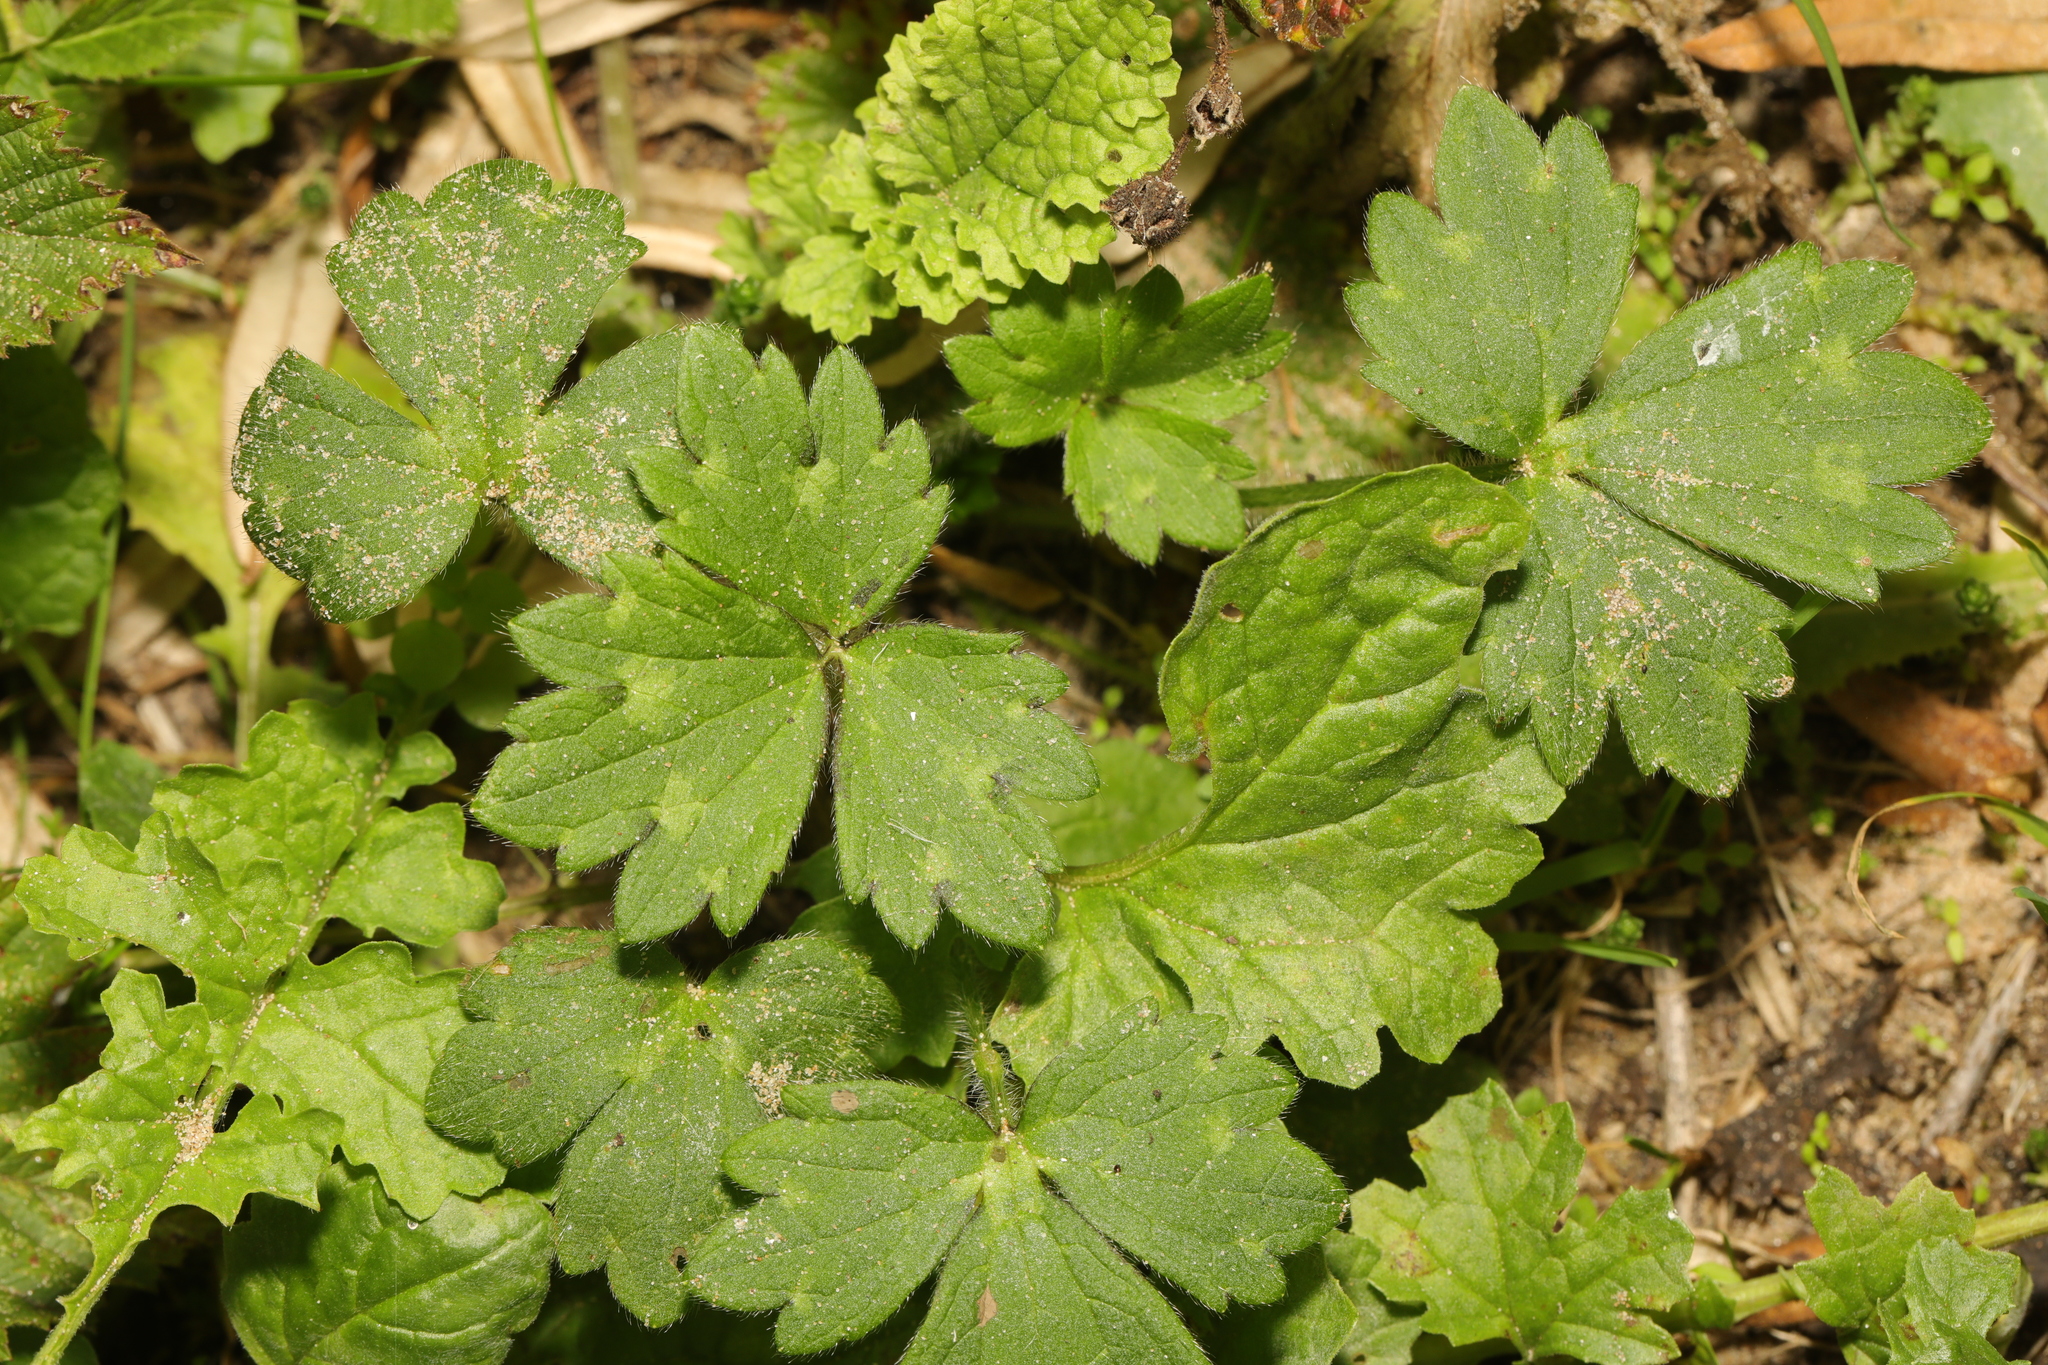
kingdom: Plantae
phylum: Tracheophyta
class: Magnoliopsida
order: Ranunculales
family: Ranunculaceae
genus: Ranunculus
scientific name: Ranunculus repens
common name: Creeping buttercup
